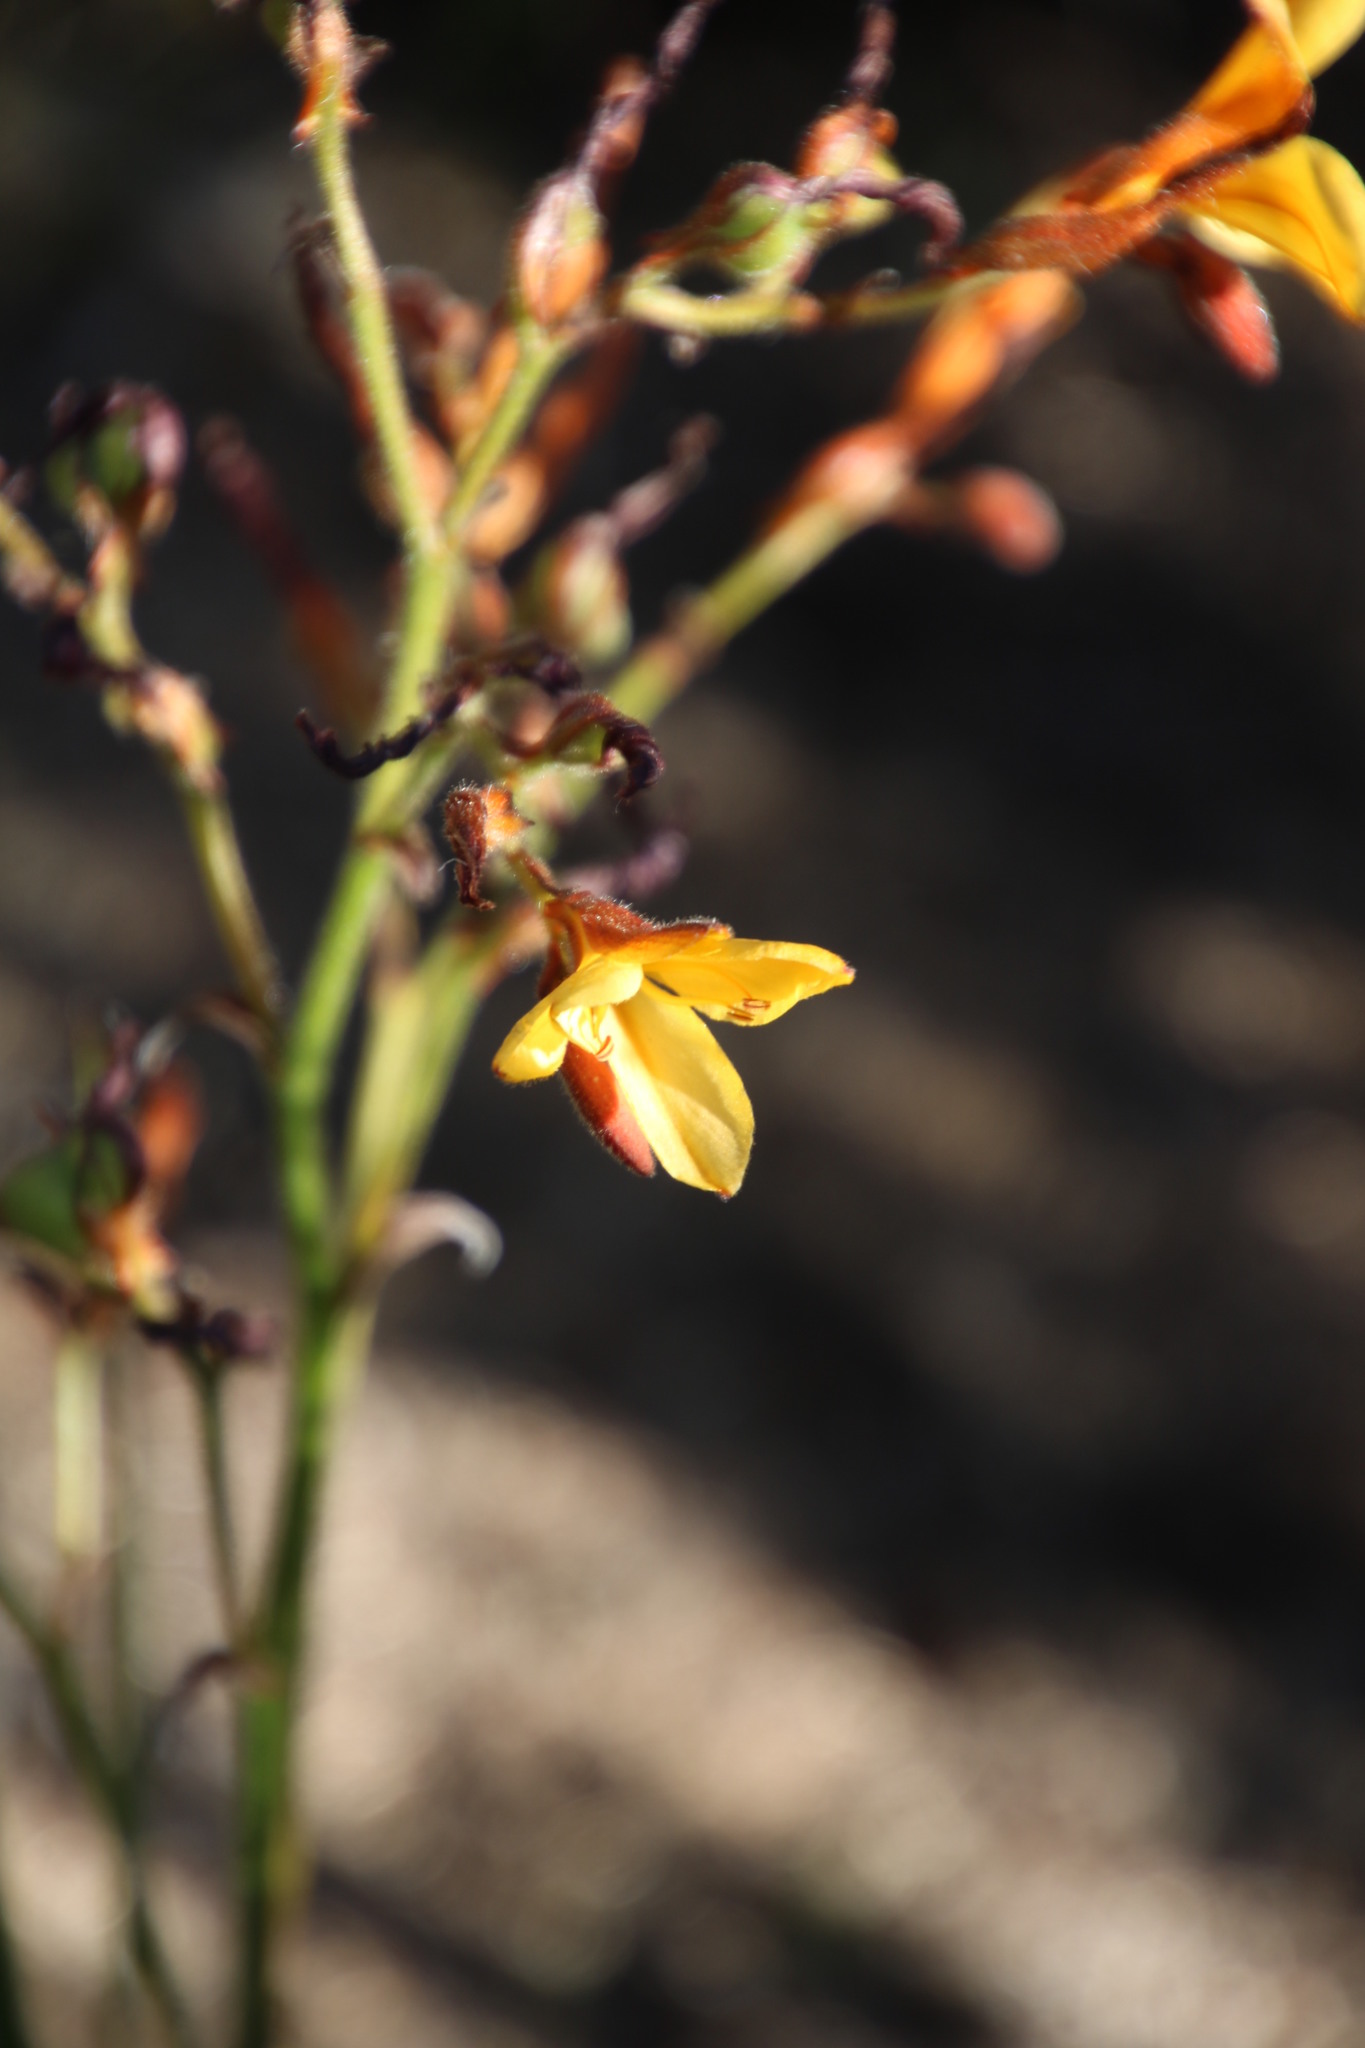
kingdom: Plantae
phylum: Tracheophyta
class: Liliopsida
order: Commelinales
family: Haemodoraceae
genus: Wachendorfia
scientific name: Wachendorfia paniculata
